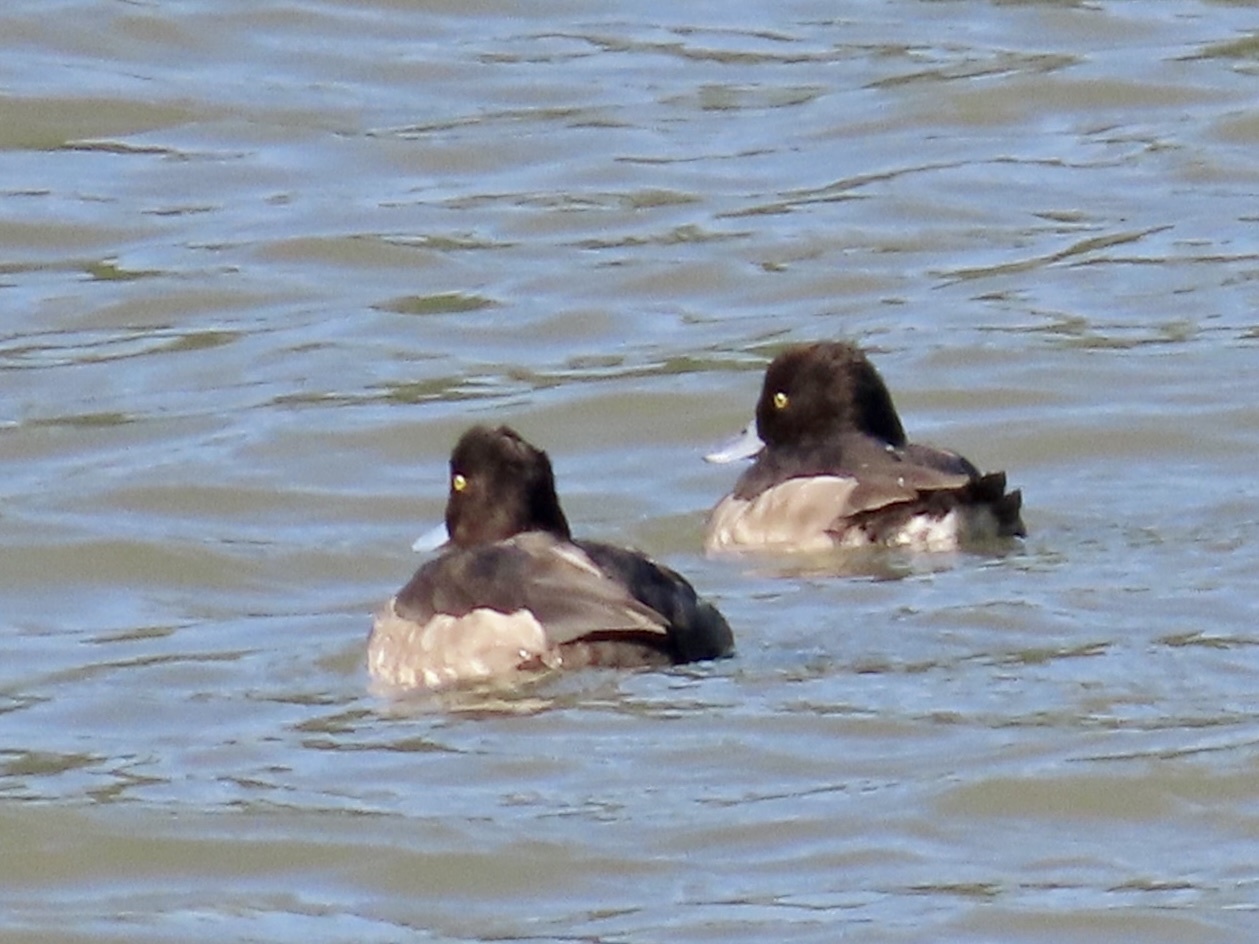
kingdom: Animalia
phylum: Chordata
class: Aves
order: Anseriformes
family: Anatidae
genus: Aythya
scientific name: Aythya fuligula
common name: Tufted duck
